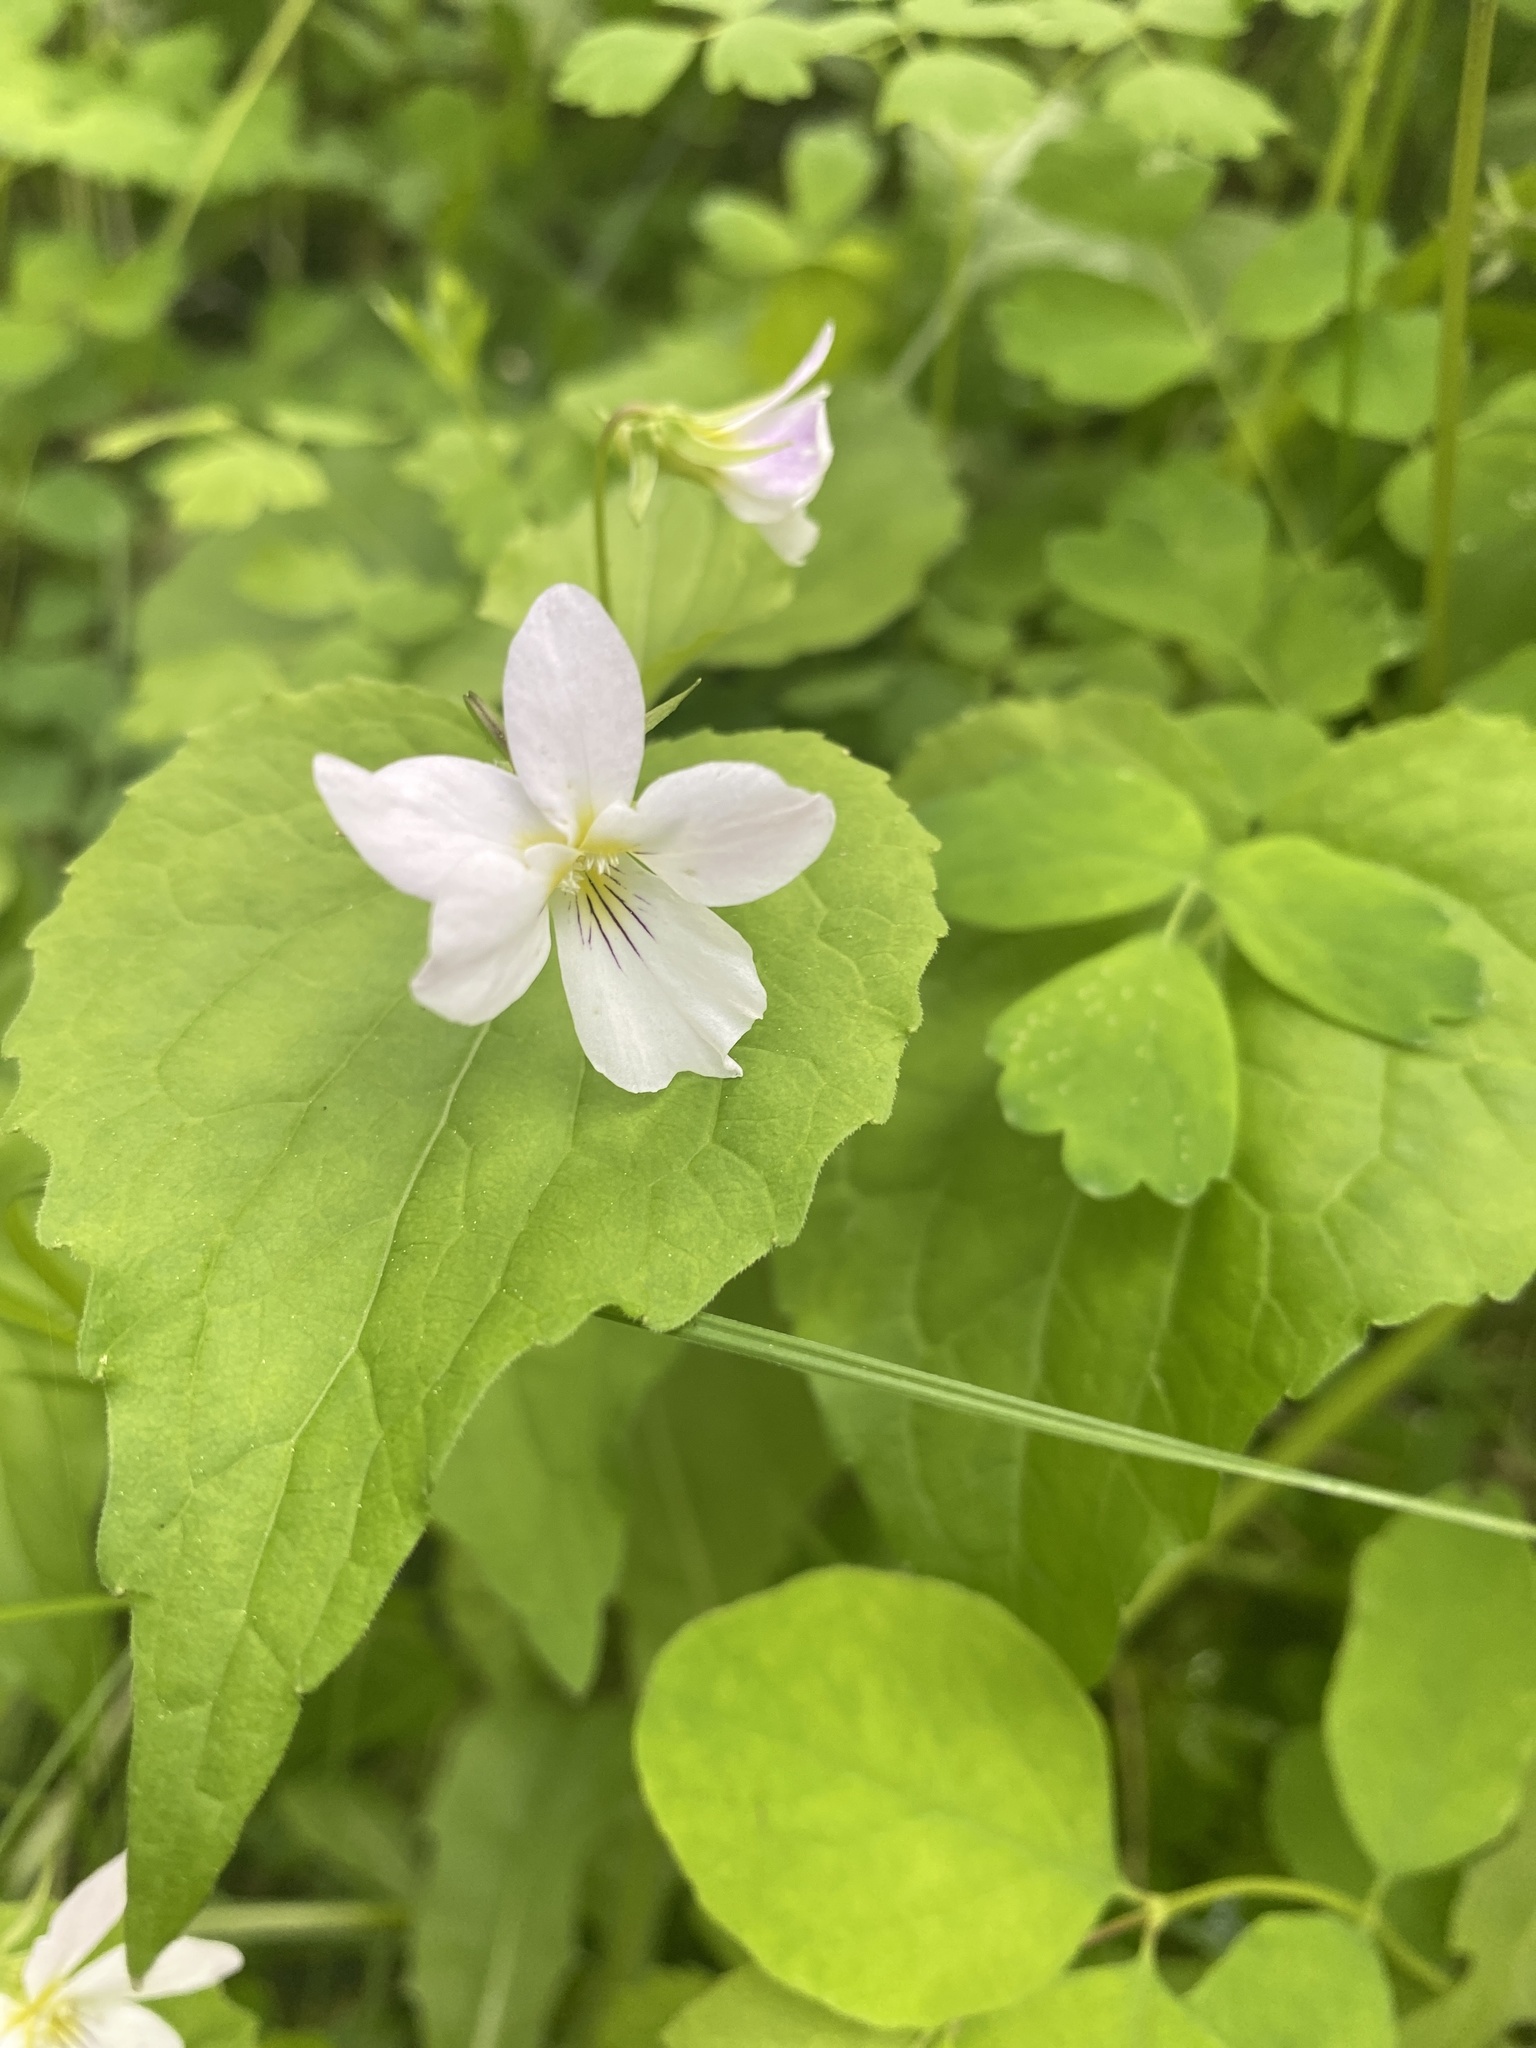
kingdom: Plantae
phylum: Tracheophyta
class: Magnoliopsida
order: Malpighiales
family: Violaceae
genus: Viola
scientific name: Viola canadensis
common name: Canada violet
